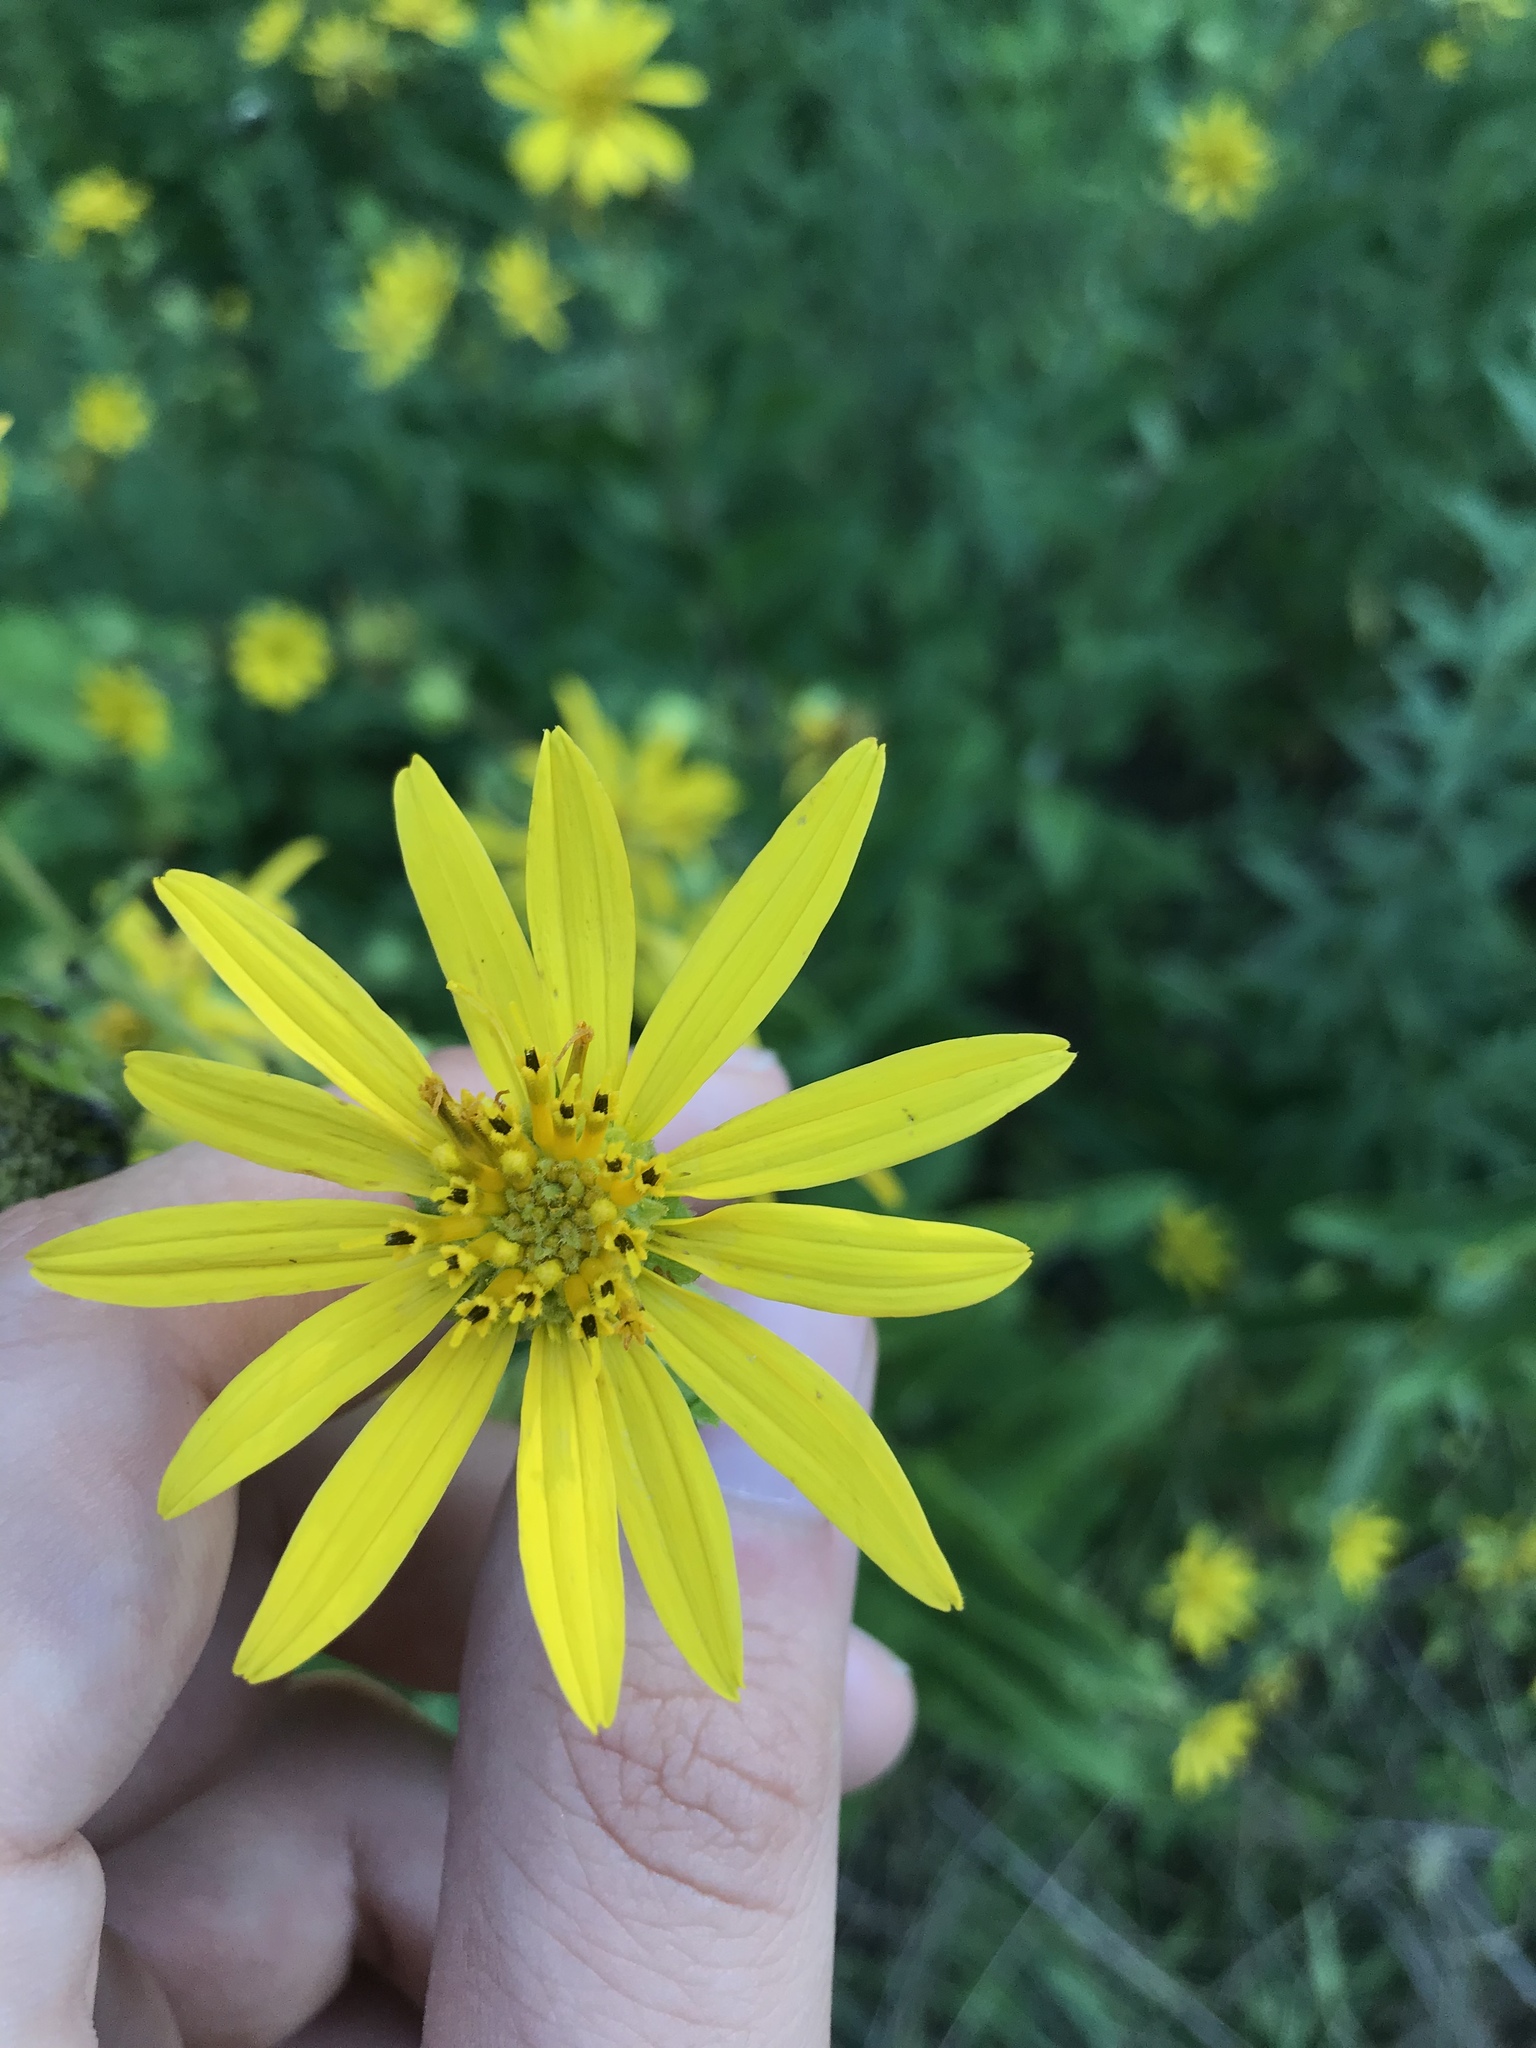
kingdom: Plantae
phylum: Tracheophyta
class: Magnoliopsida
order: Asterales
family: Asteraceae
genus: Silphium
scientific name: Silphium asteriscus
